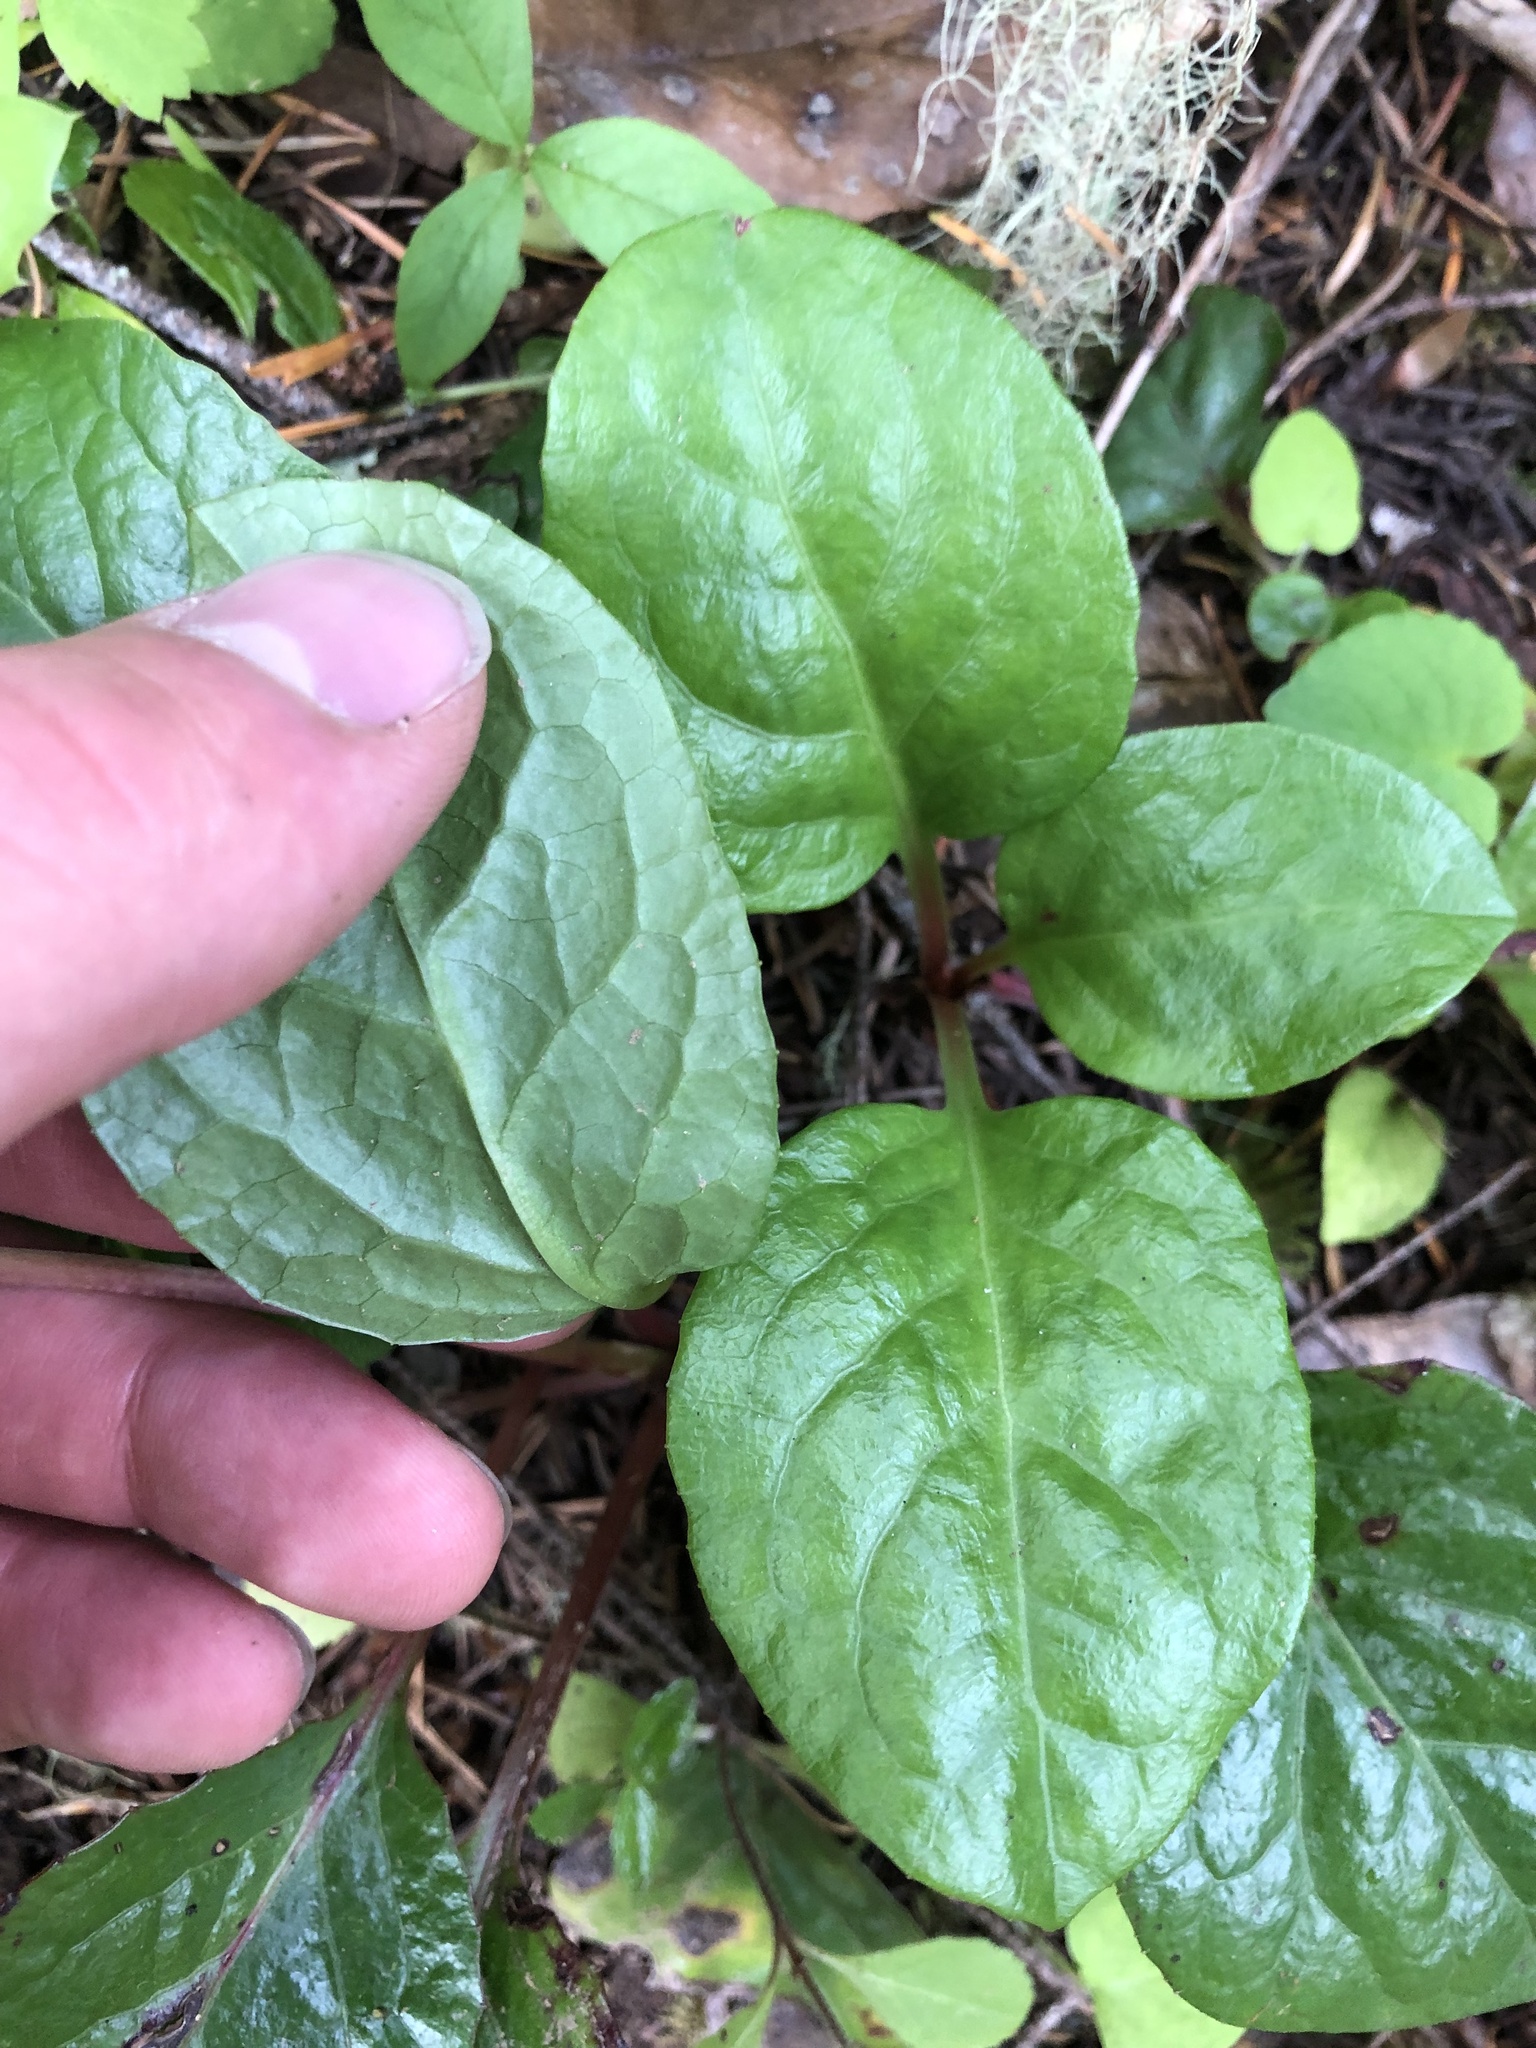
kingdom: Plantae
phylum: Tracheophyta
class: Magnoliopsida
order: Ericales
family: Ericaceae
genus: Pyrola
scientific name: Pyrola asarifolia
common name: Bog wintergreen
